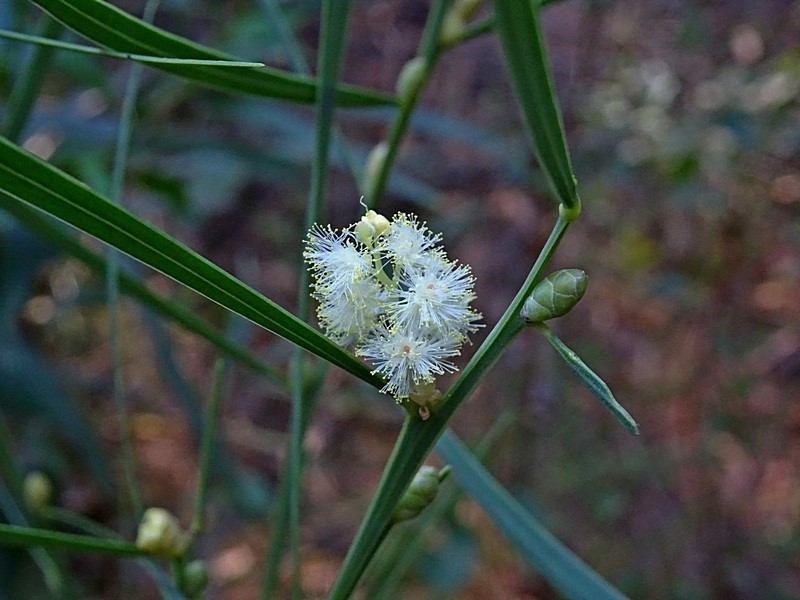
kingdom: Plantae
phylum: Tracheophyta
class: Magnoliopsida
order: Fabales
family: Fabaceae
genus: Acacia
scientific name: Acacia suaveolens
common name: Sweet acacia
